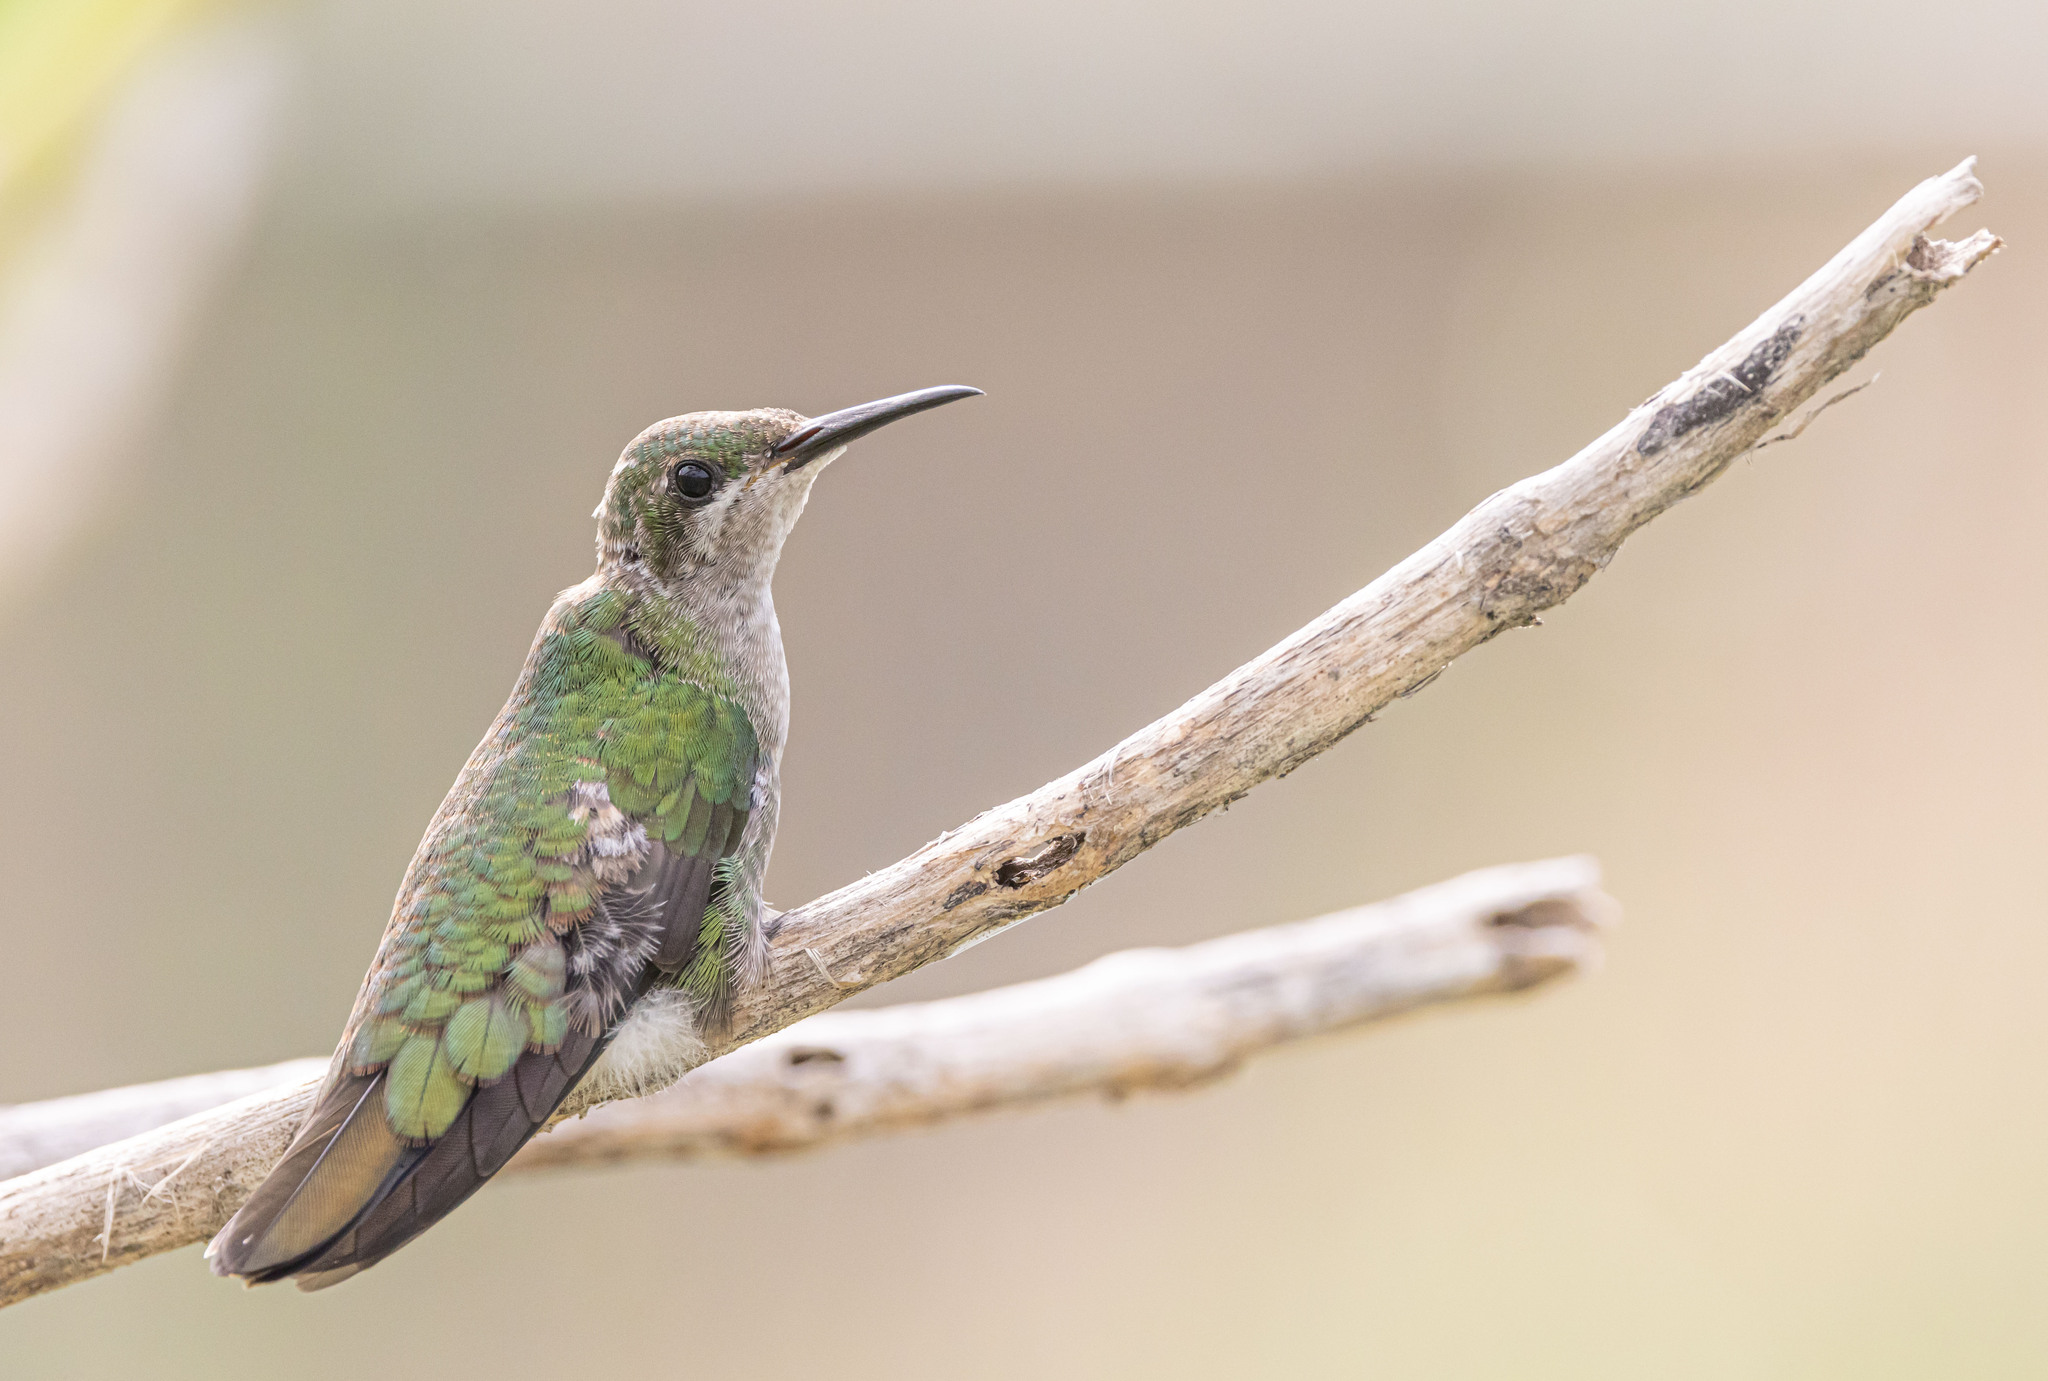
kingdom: Animalia
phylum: Chordata
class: Aves
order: Apodiformes
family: Trochilidae
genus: Anthracothorax
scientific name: Anthracothorax dominicus
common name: Antillean mango
